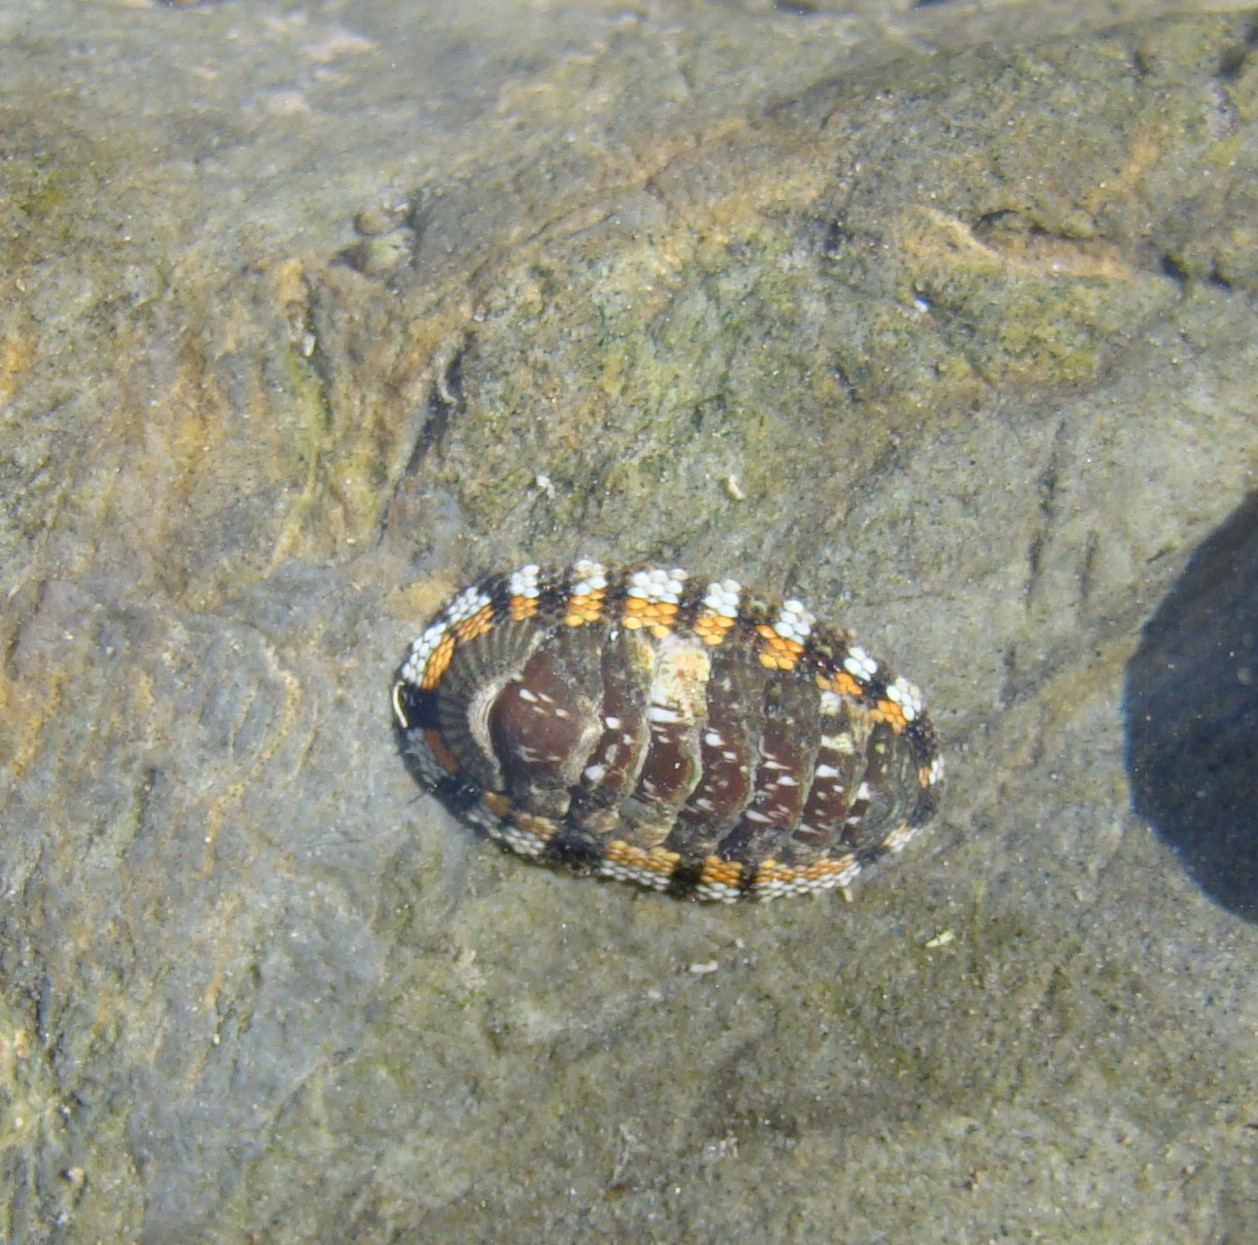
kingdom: Animalia
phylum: Mollusca
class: Polyplacophora
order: Chitonida
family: Chitonidae
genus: Sypharochiton
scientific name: Sypharochiton sinclairi
